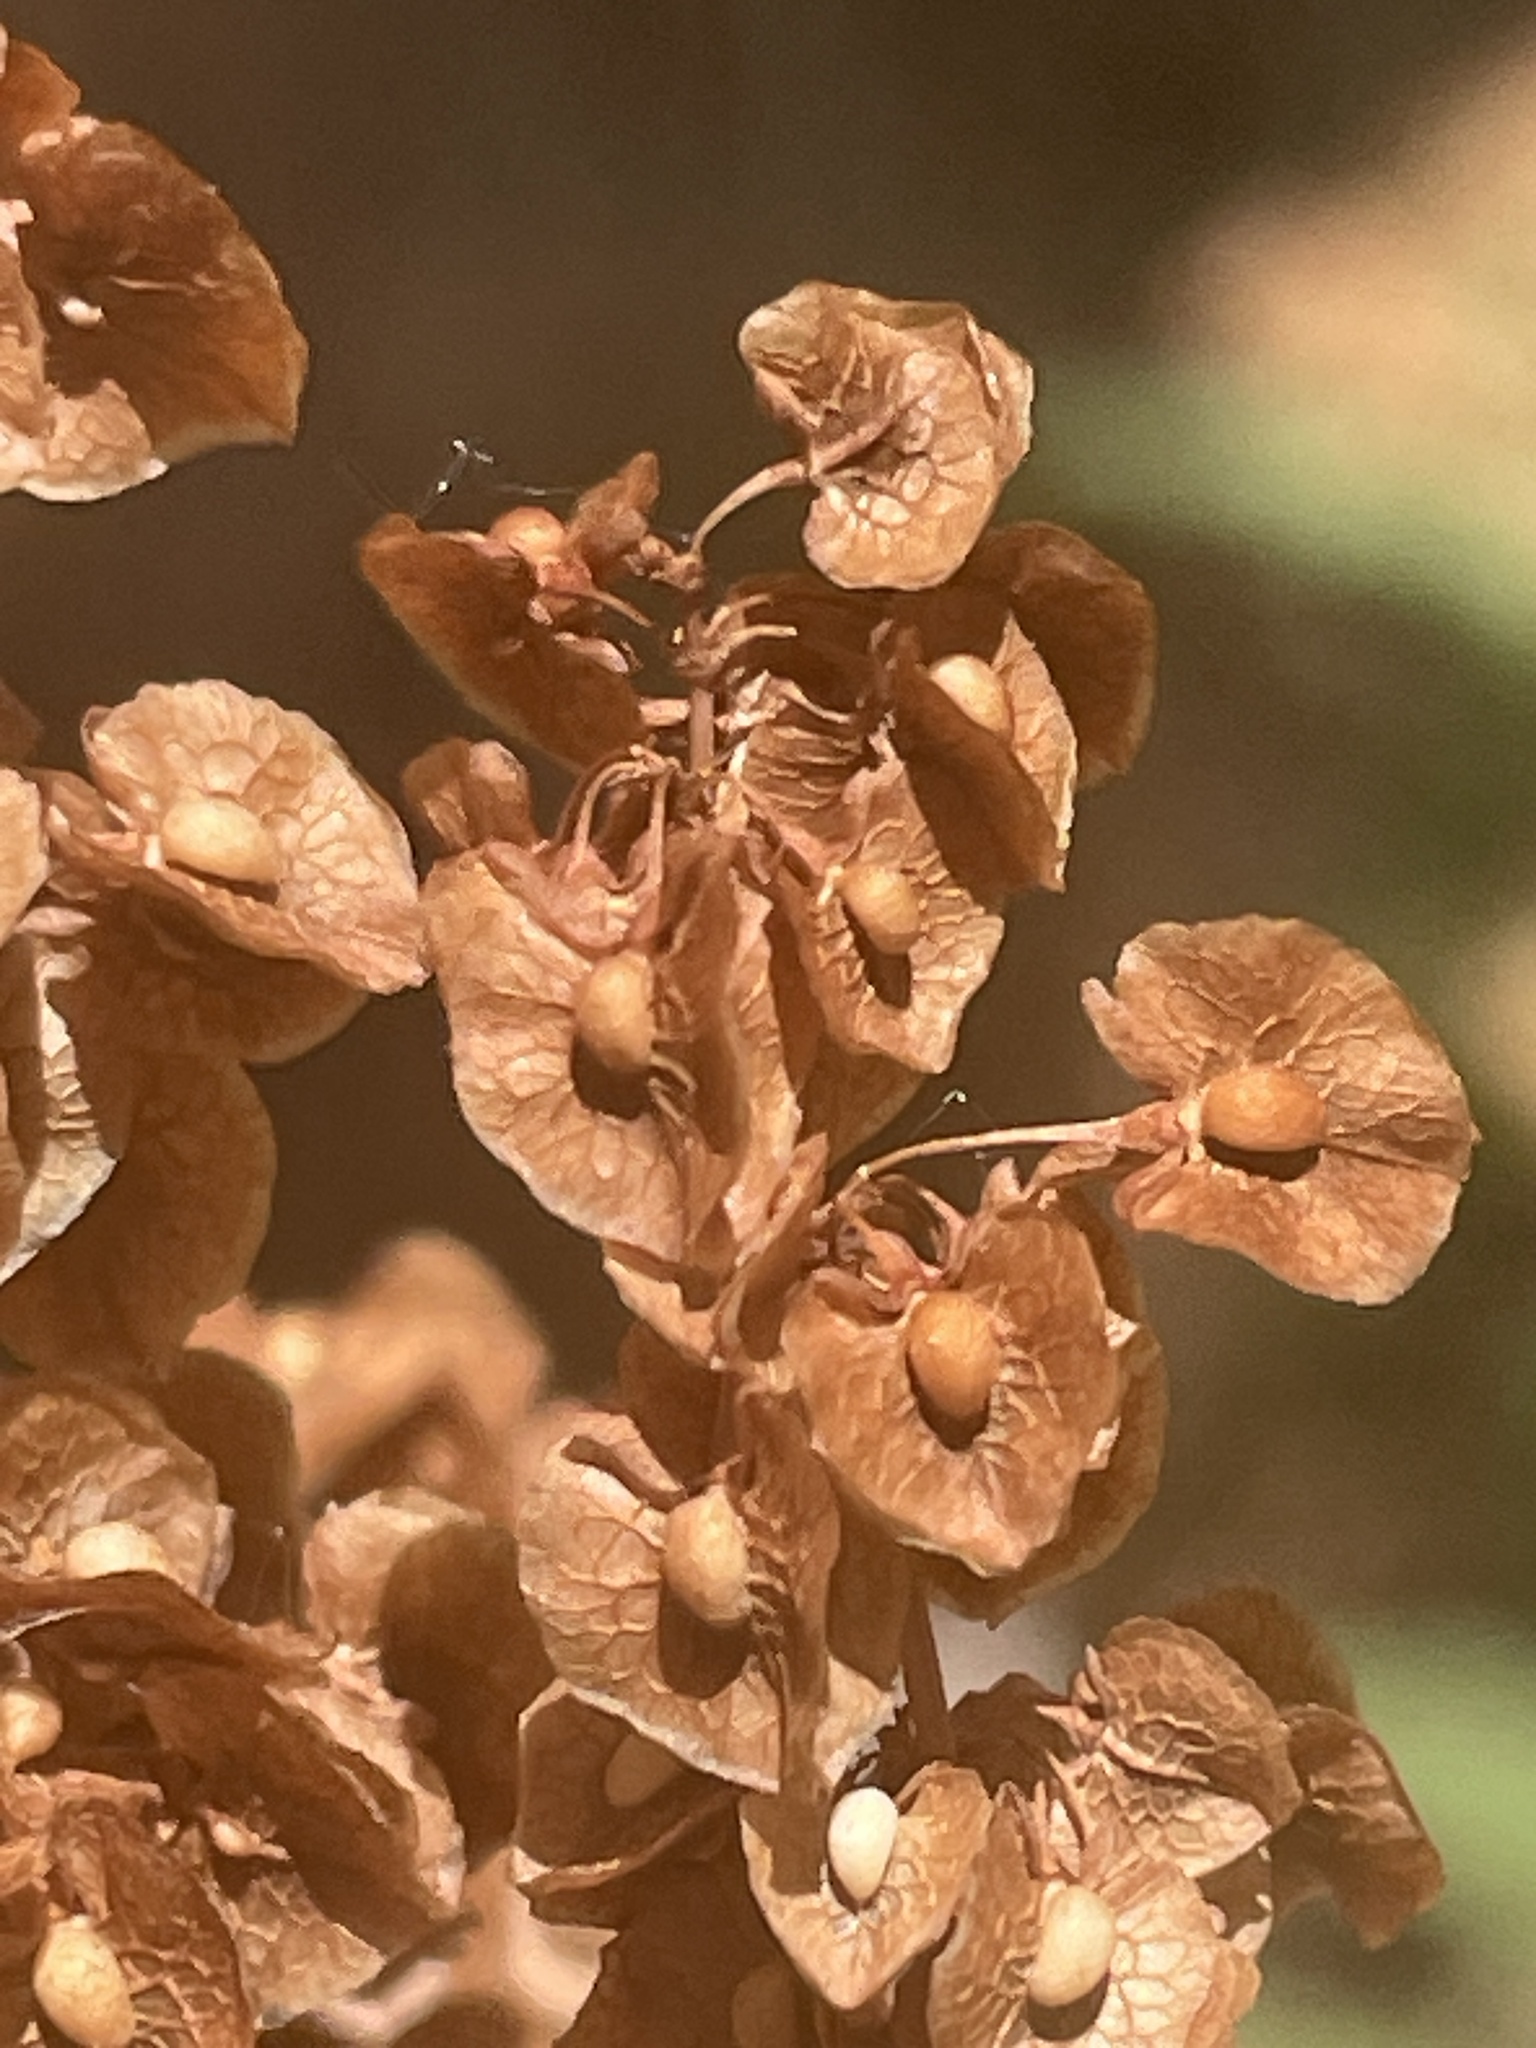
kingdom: Plantae
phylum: Tracheophyta
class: Magnoliopsida
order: Caryophyllales
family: Polygonaceae
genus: Rumex
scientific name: Rumex patientia
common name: Patience dock
